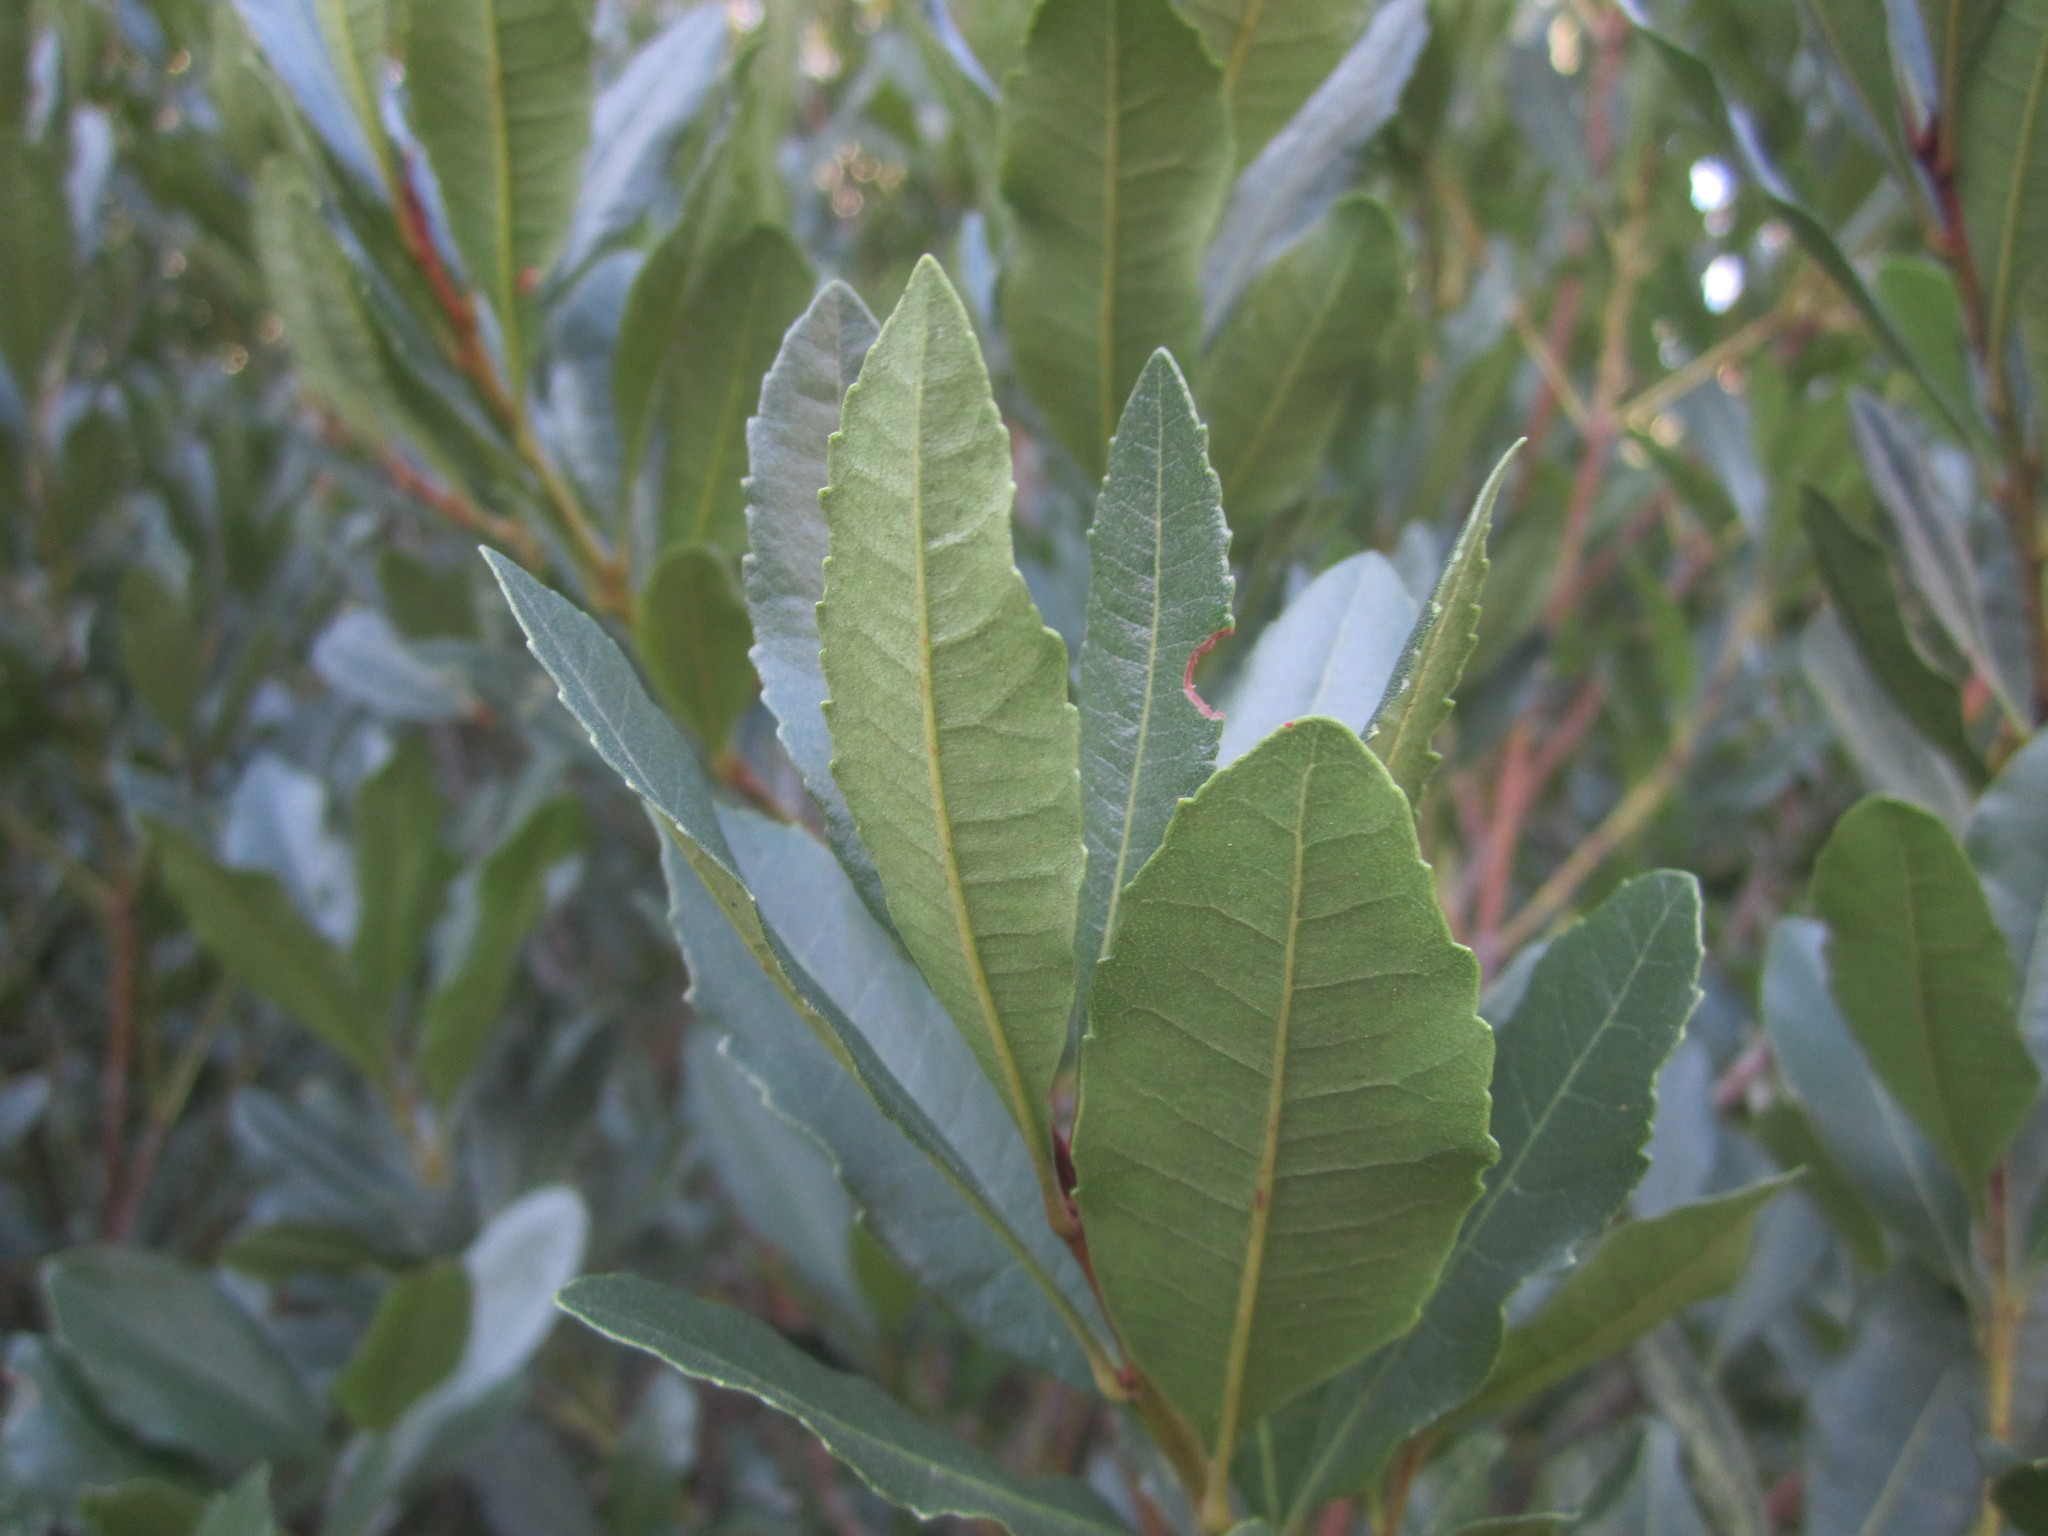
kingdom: Plantae
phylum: Tracheophyta
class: Magnoliopsida
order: Fagales
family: Myricaceae
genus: Morella
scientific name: Morella faya
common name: Firetree
